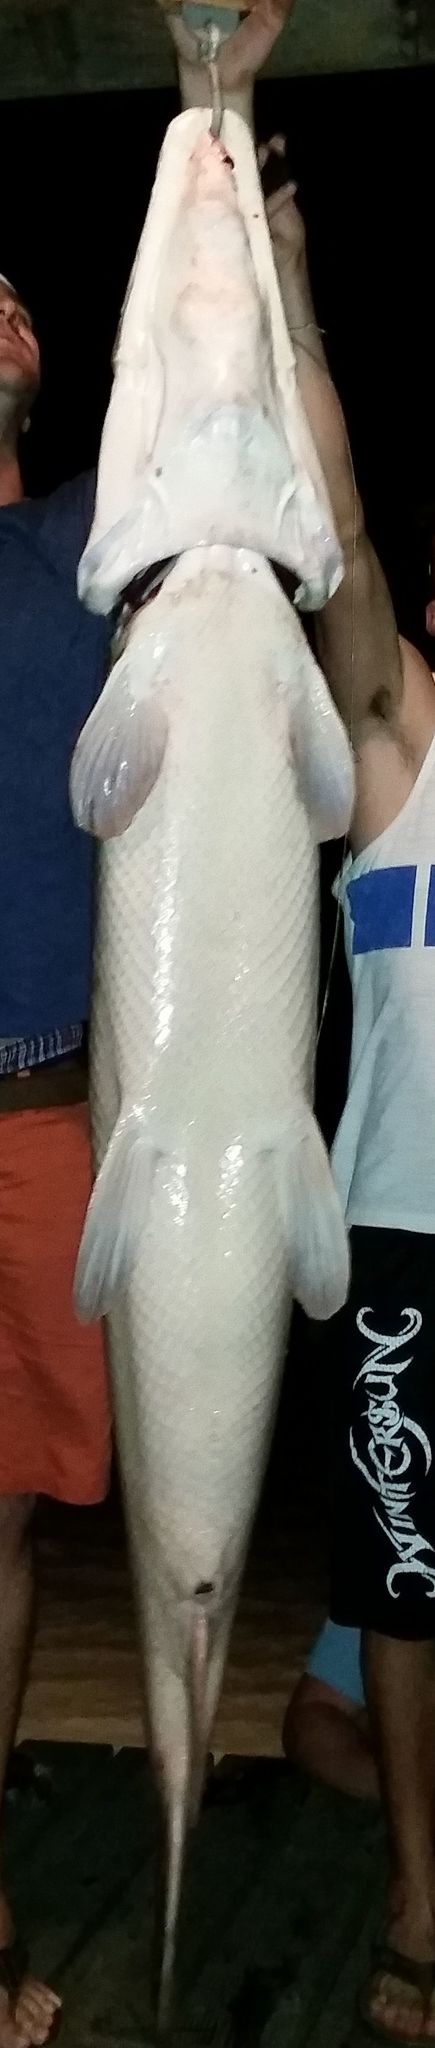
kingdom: Animalia
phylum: Chordata
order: Lepisosteiformes
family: Lepisosteidae
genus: Atractosteus
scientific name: Atractosteus spatula
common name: Alligator gar
